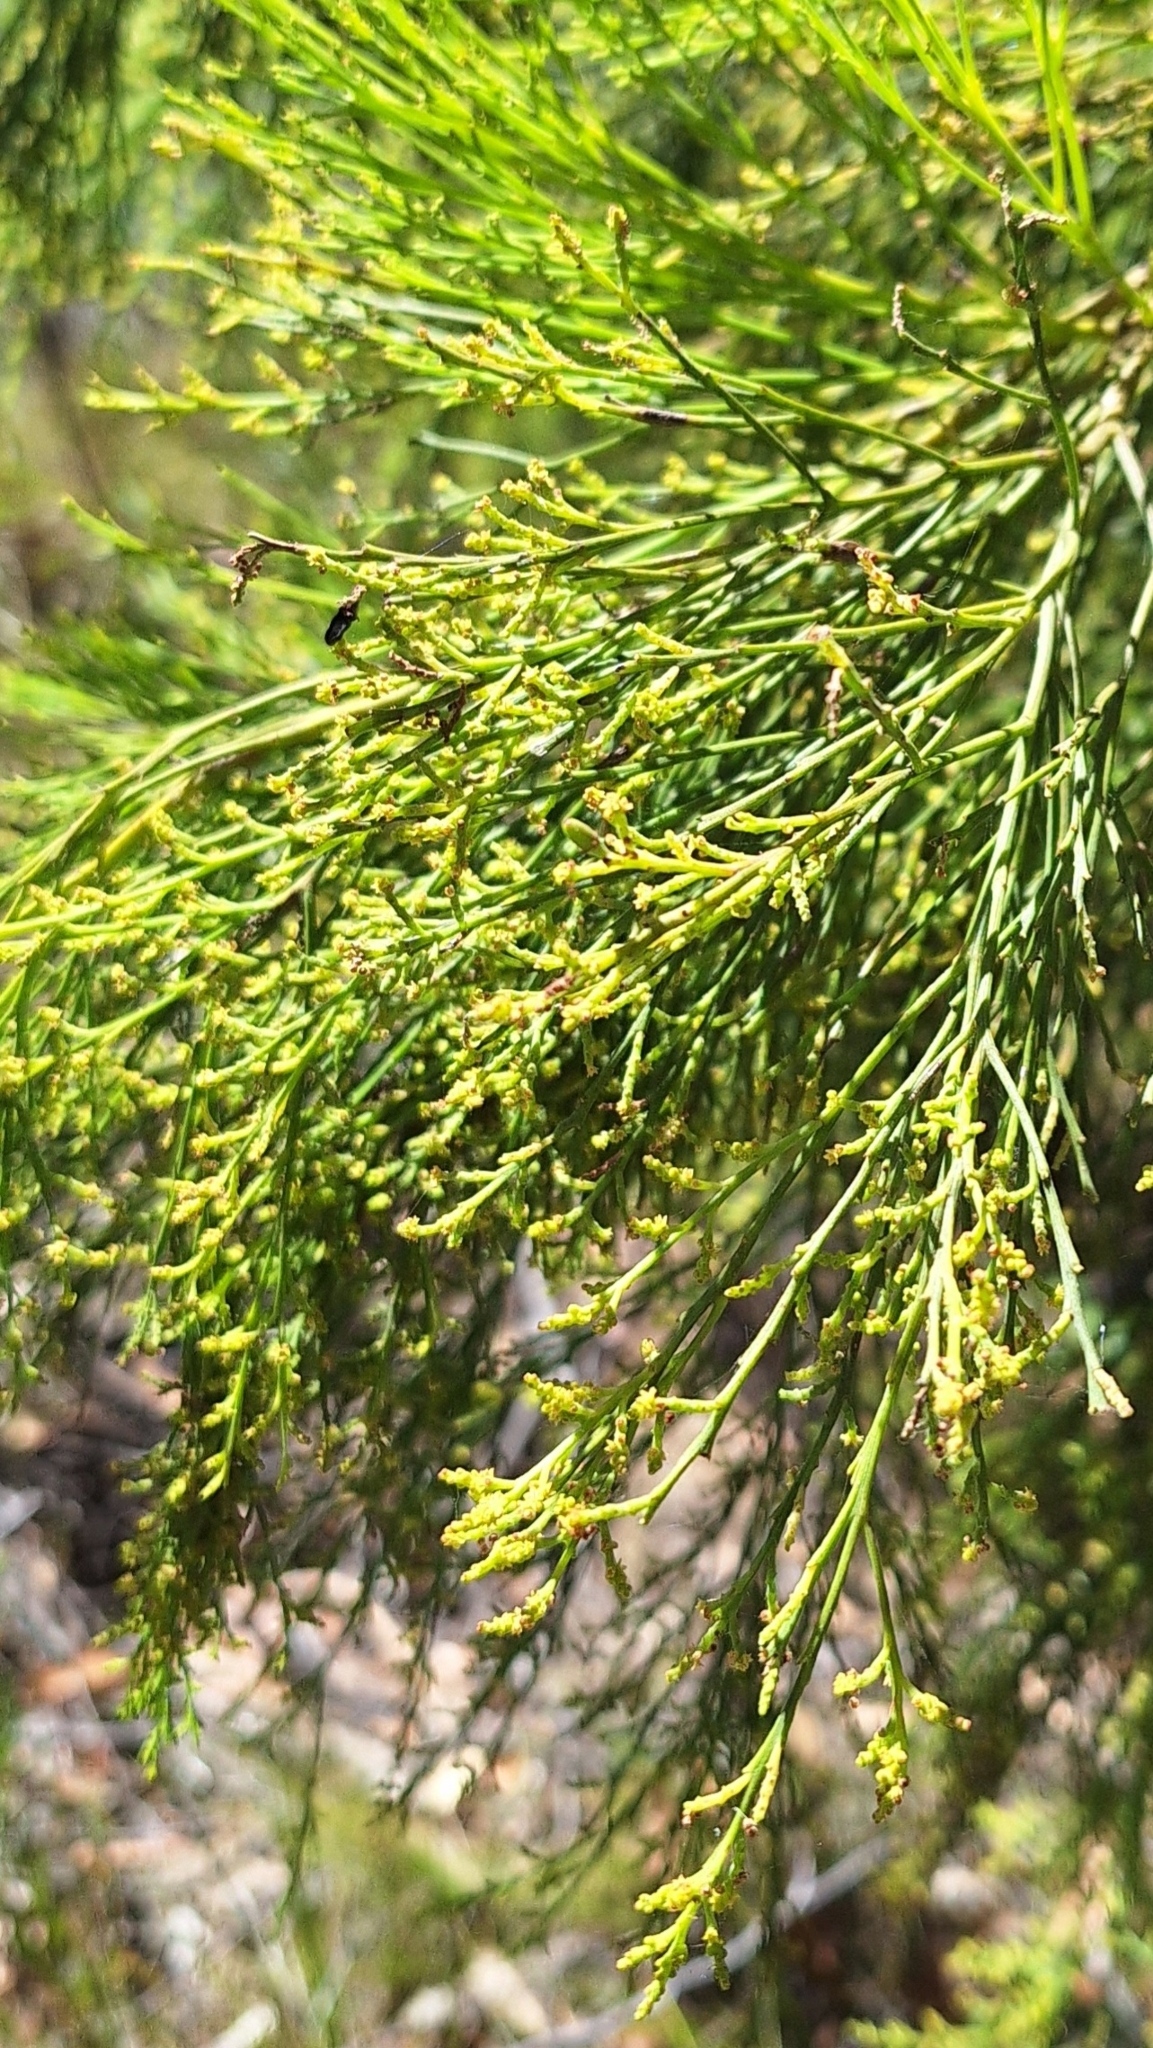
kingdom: Plantae
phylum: Tracheophyta
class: Magnoliopsida
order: Santalales
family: Santalaceae
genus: Exocarpos
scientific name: Exocarpos cupressiformis
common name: Cherry ballart
